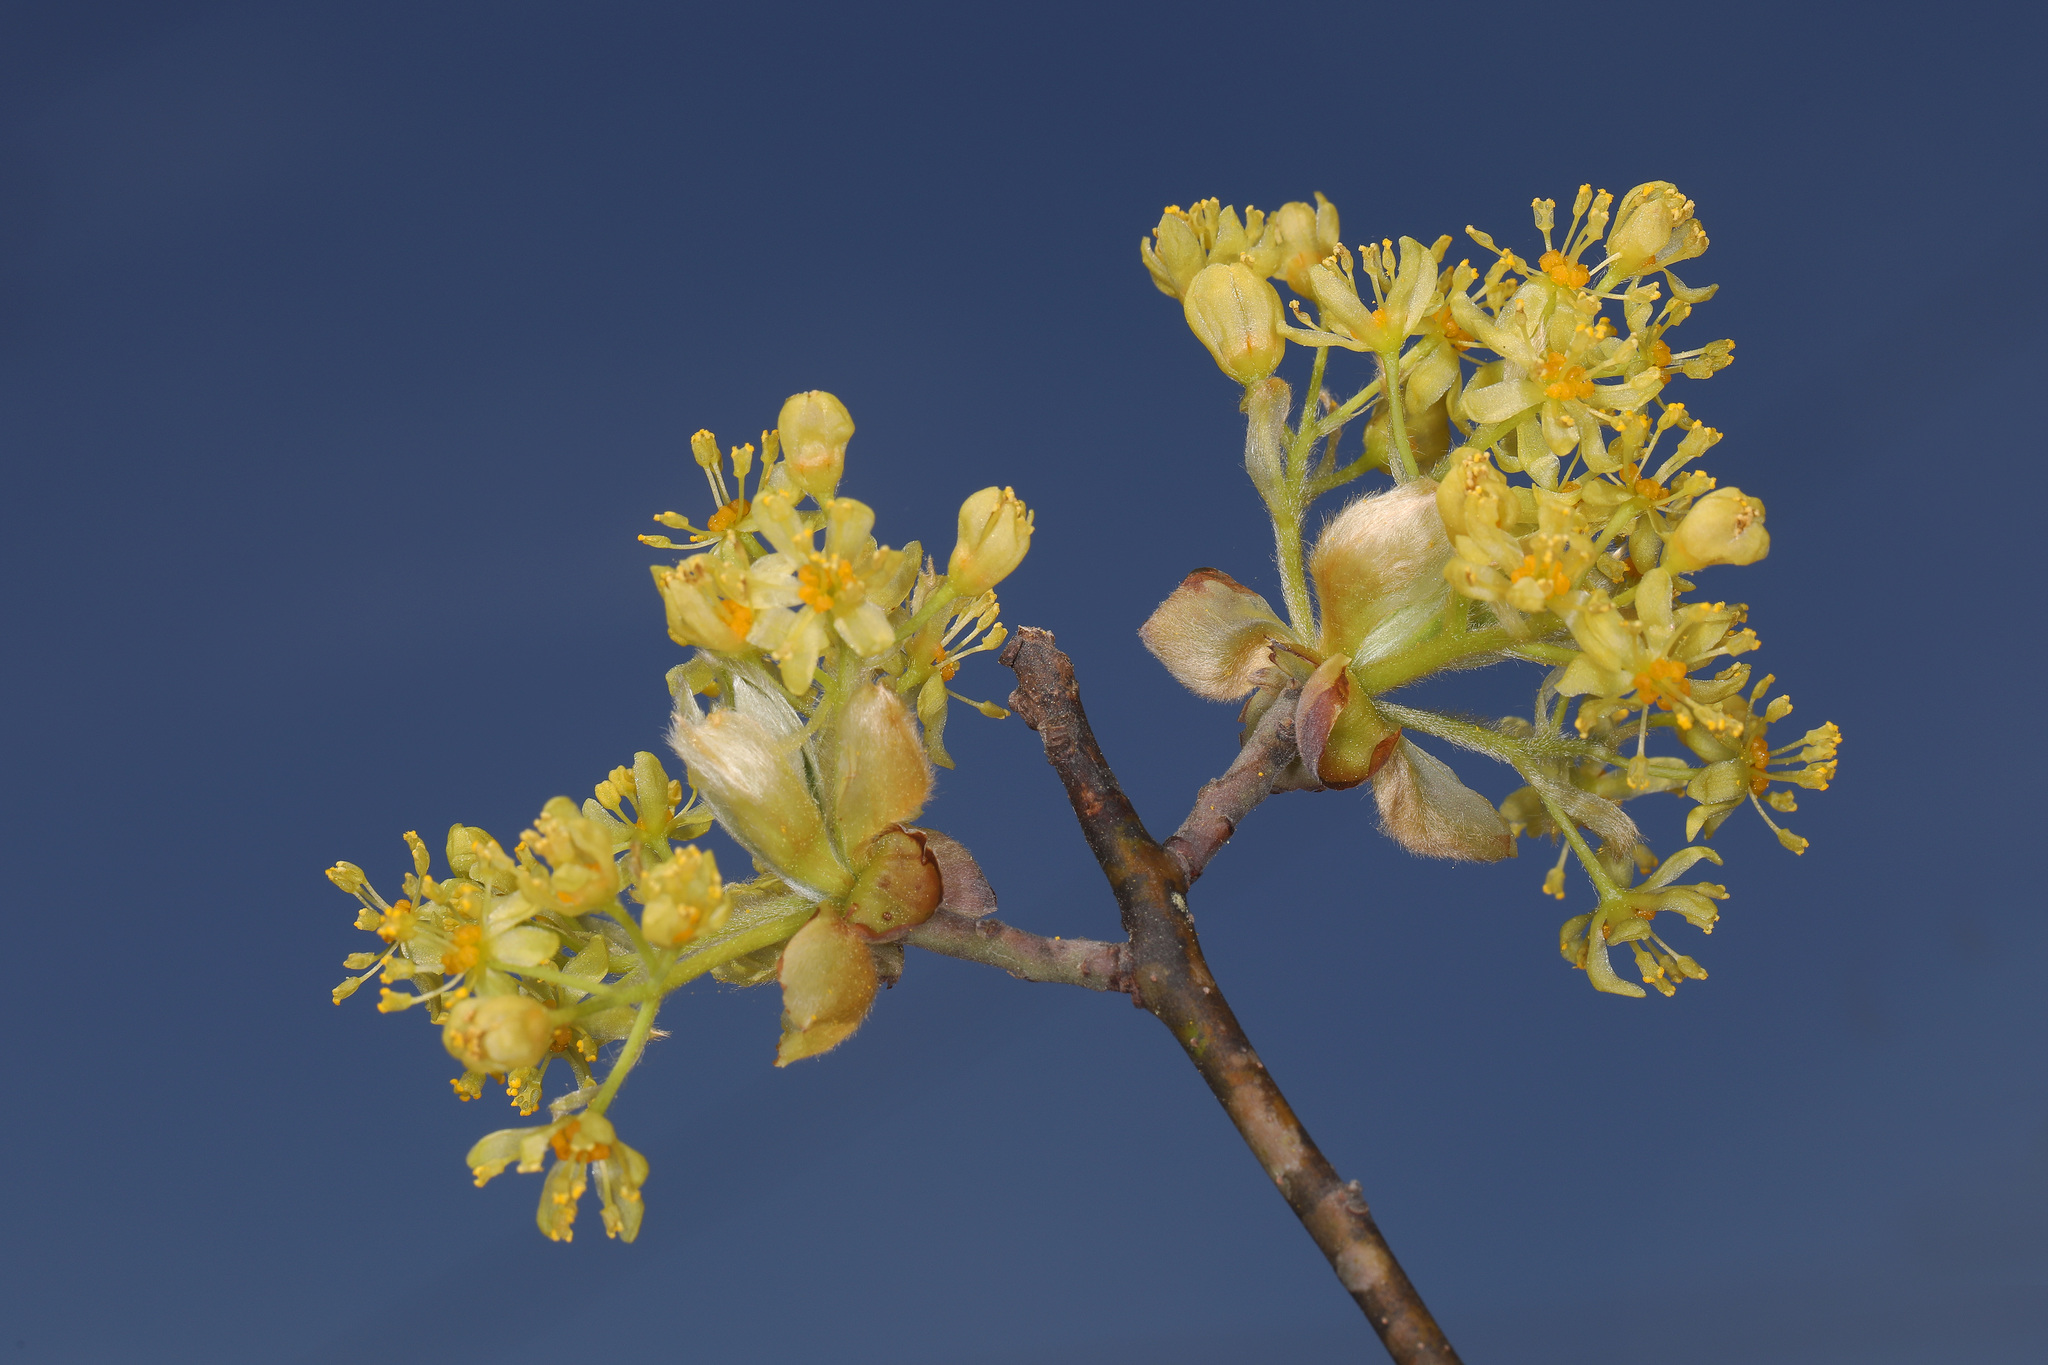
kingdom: Plantae
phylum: Tracheophyta
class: Magnoliopsida
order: Laurales
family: Lauraceae
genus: Sassafras
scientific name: Sassafras albidum
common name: Sassafras
